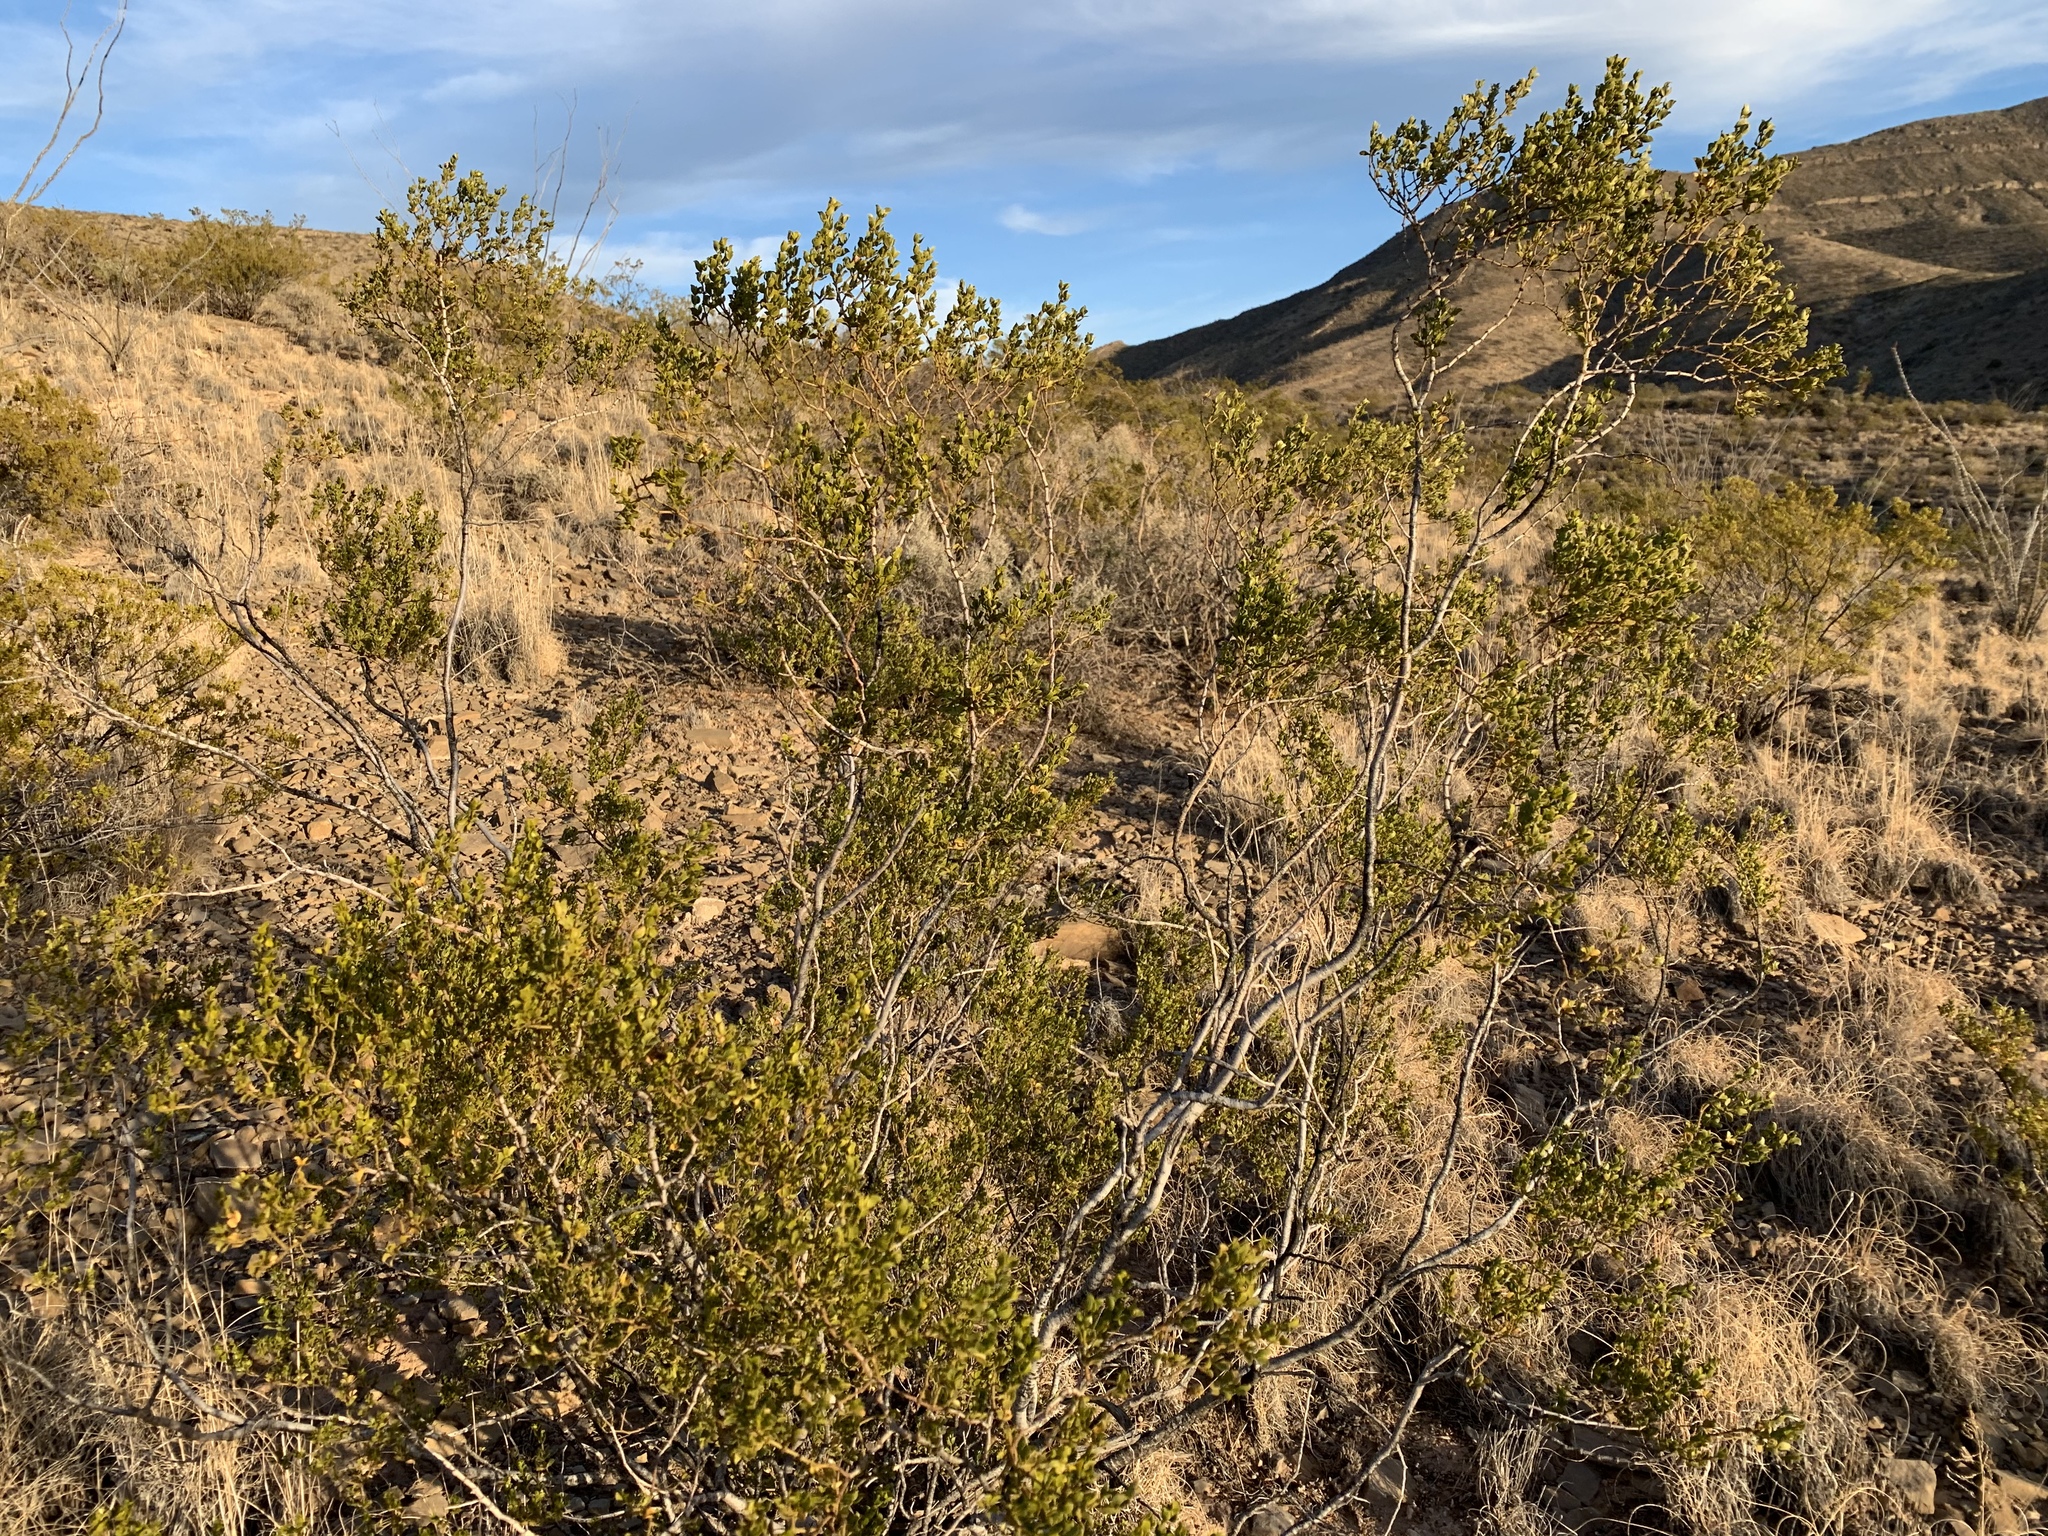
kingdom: Plantae
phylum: Tracheophyta
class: Magnoliopsida
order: Zygophyllales
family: Zygophyllaceae
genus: Larrea
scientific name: Larrea tridentata
